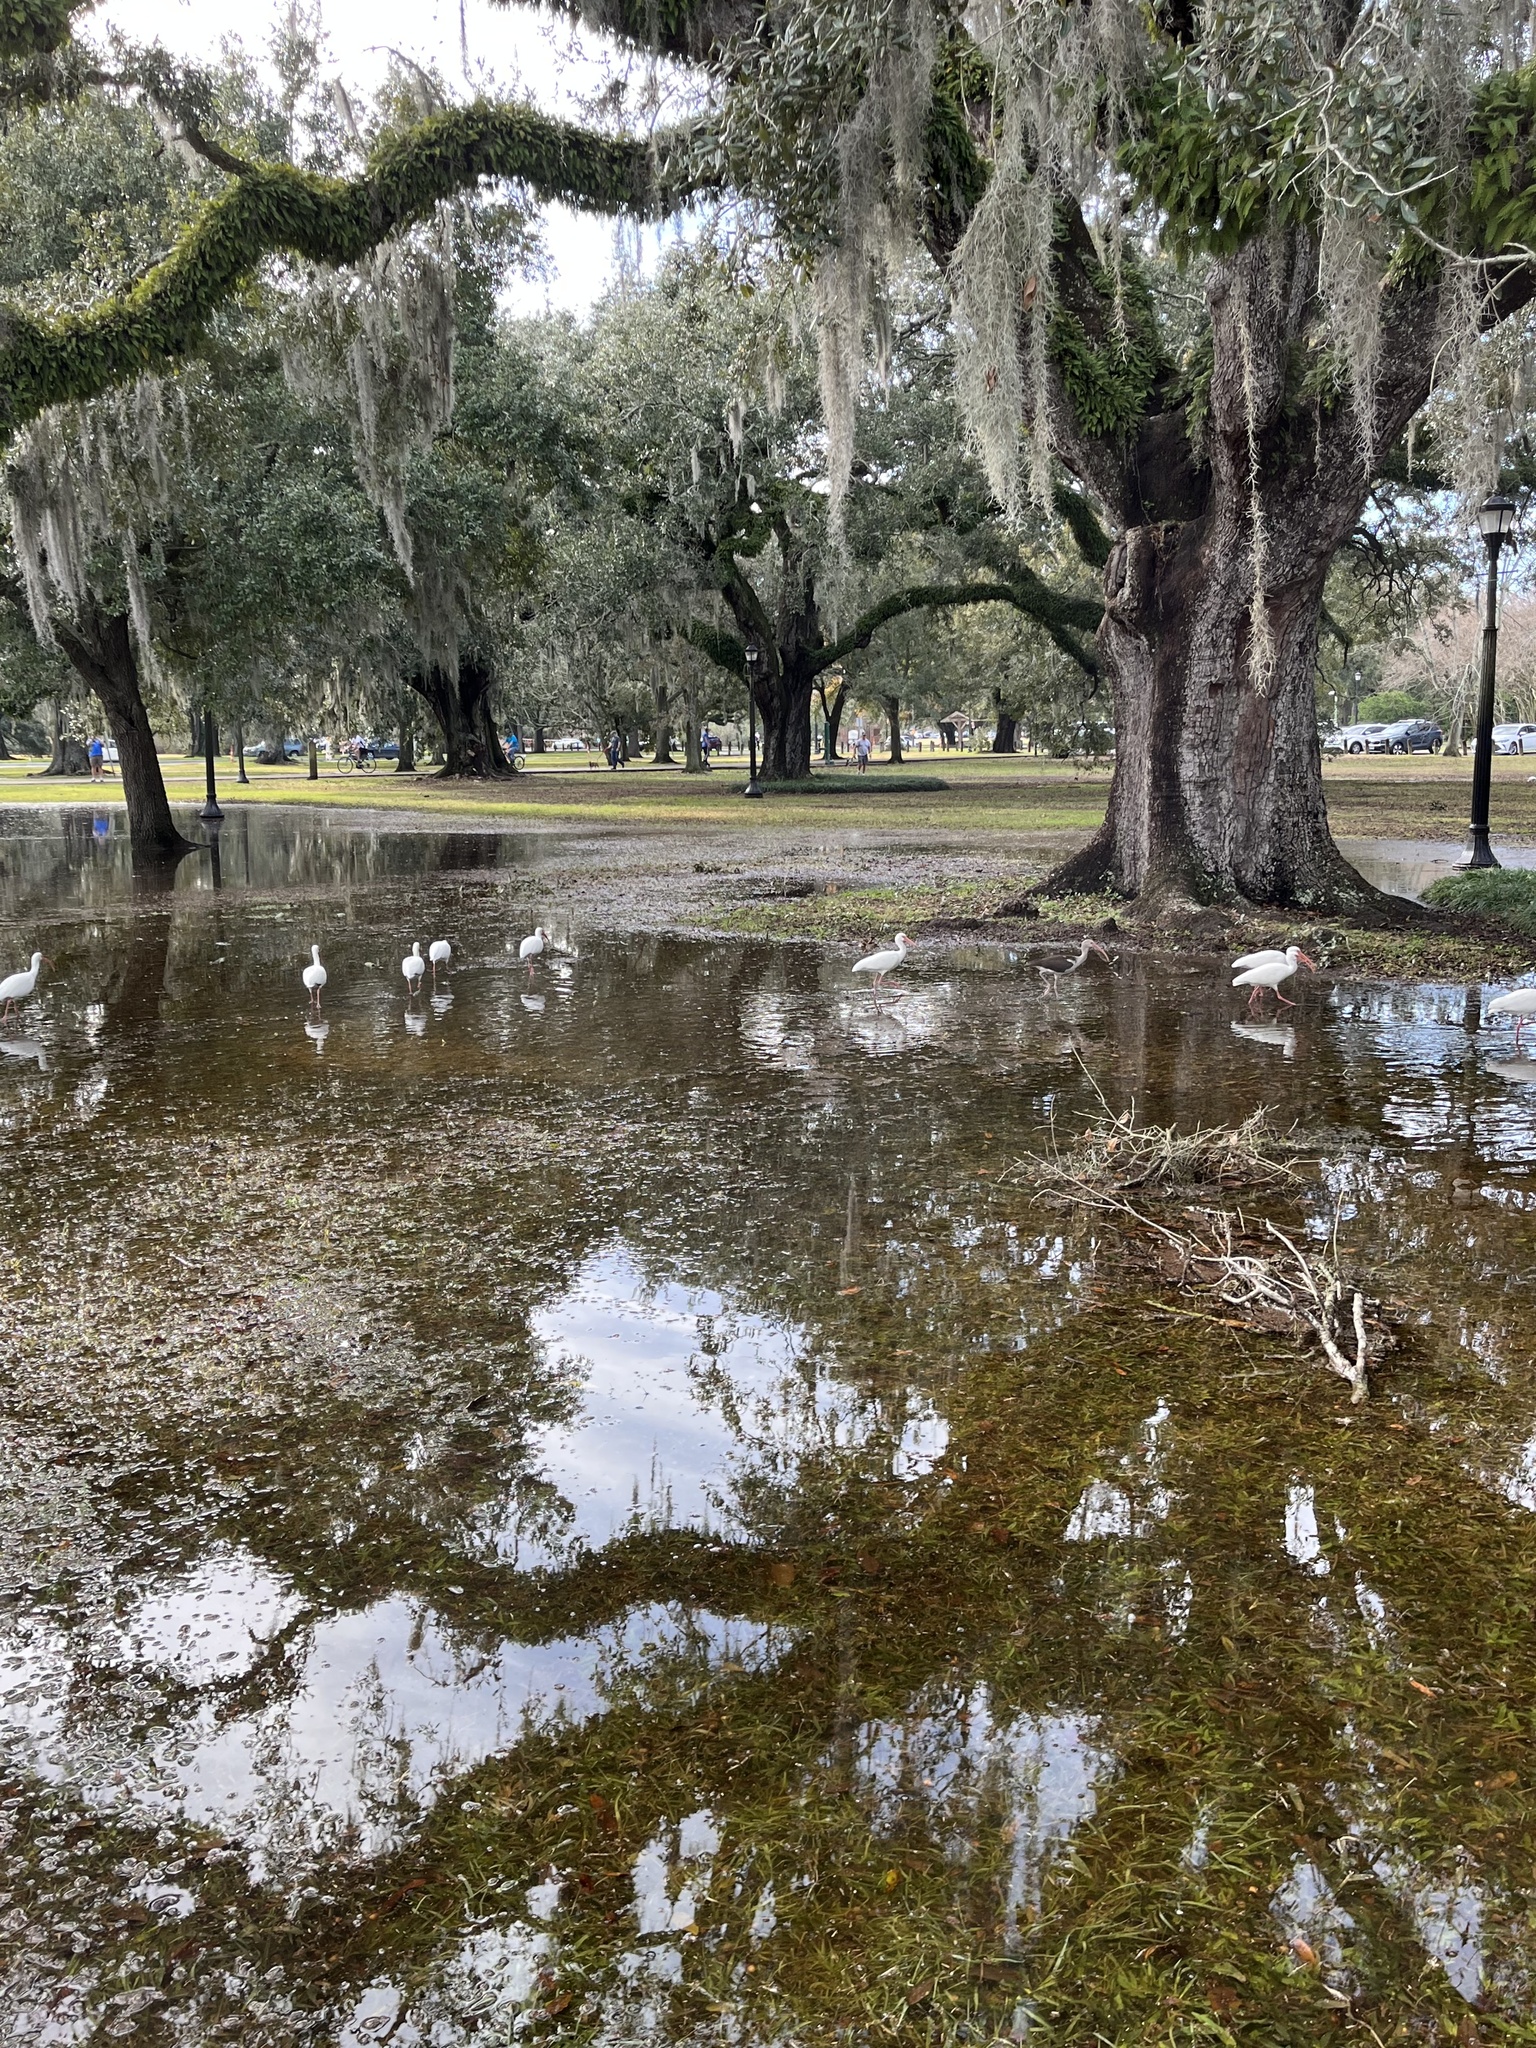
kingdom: Animalia
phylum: Chordata
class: Aves
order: Pelecaniformes
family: Threskiornithidae
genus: Eudocimus
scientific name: Eudocimus albus
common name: White ibis
